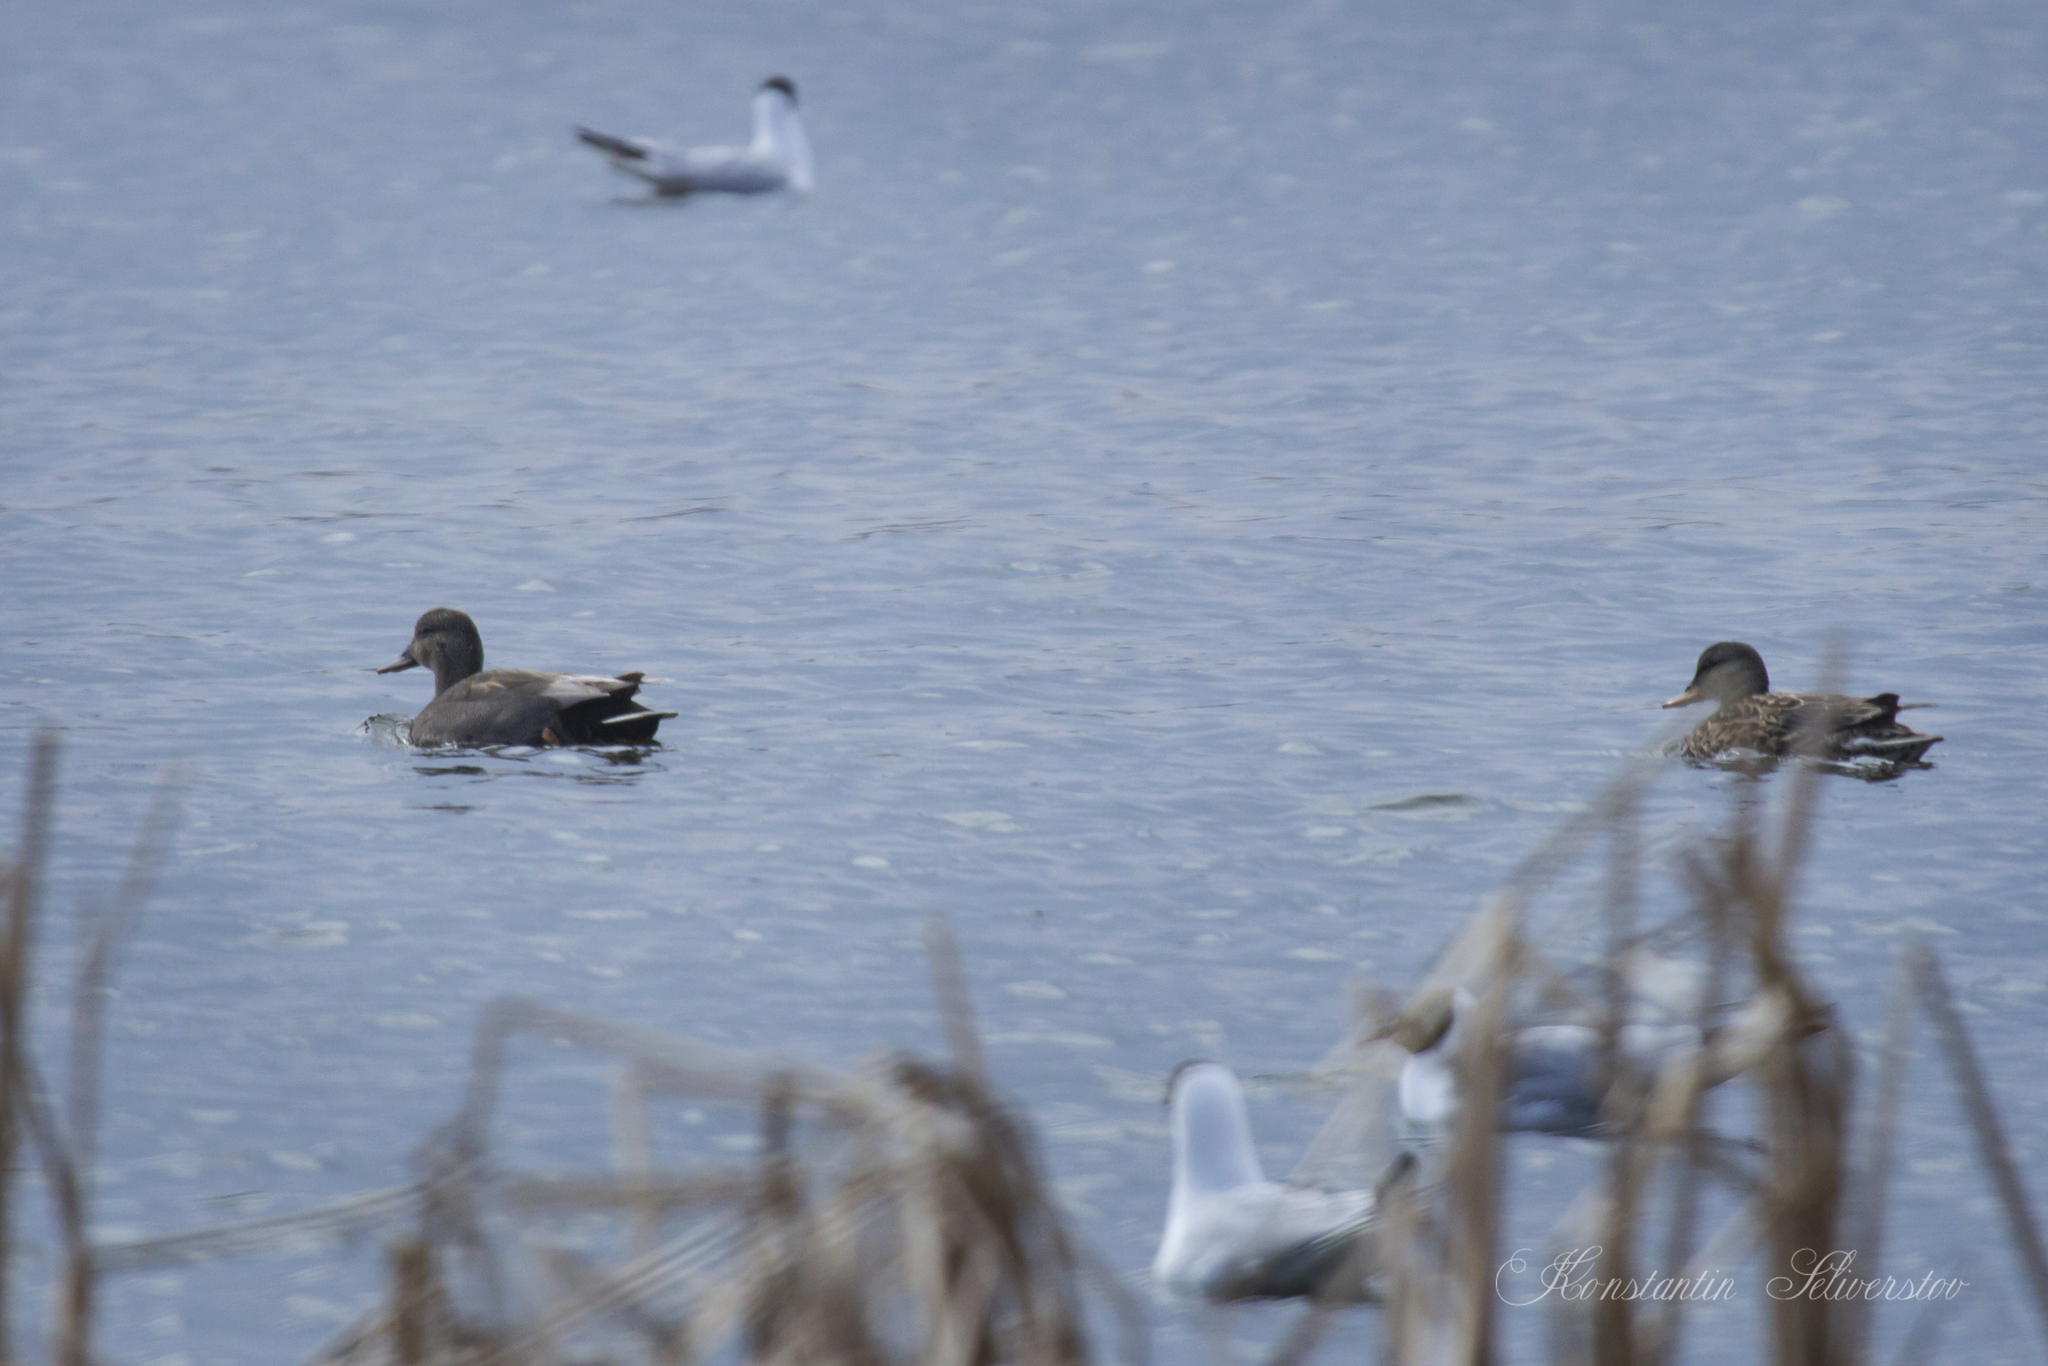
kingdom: Animalia
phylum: Chordata
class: Aves
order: Anseriformes
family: Anatidae
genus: Mareca
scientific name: Mareca strepera
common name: Gadwall
